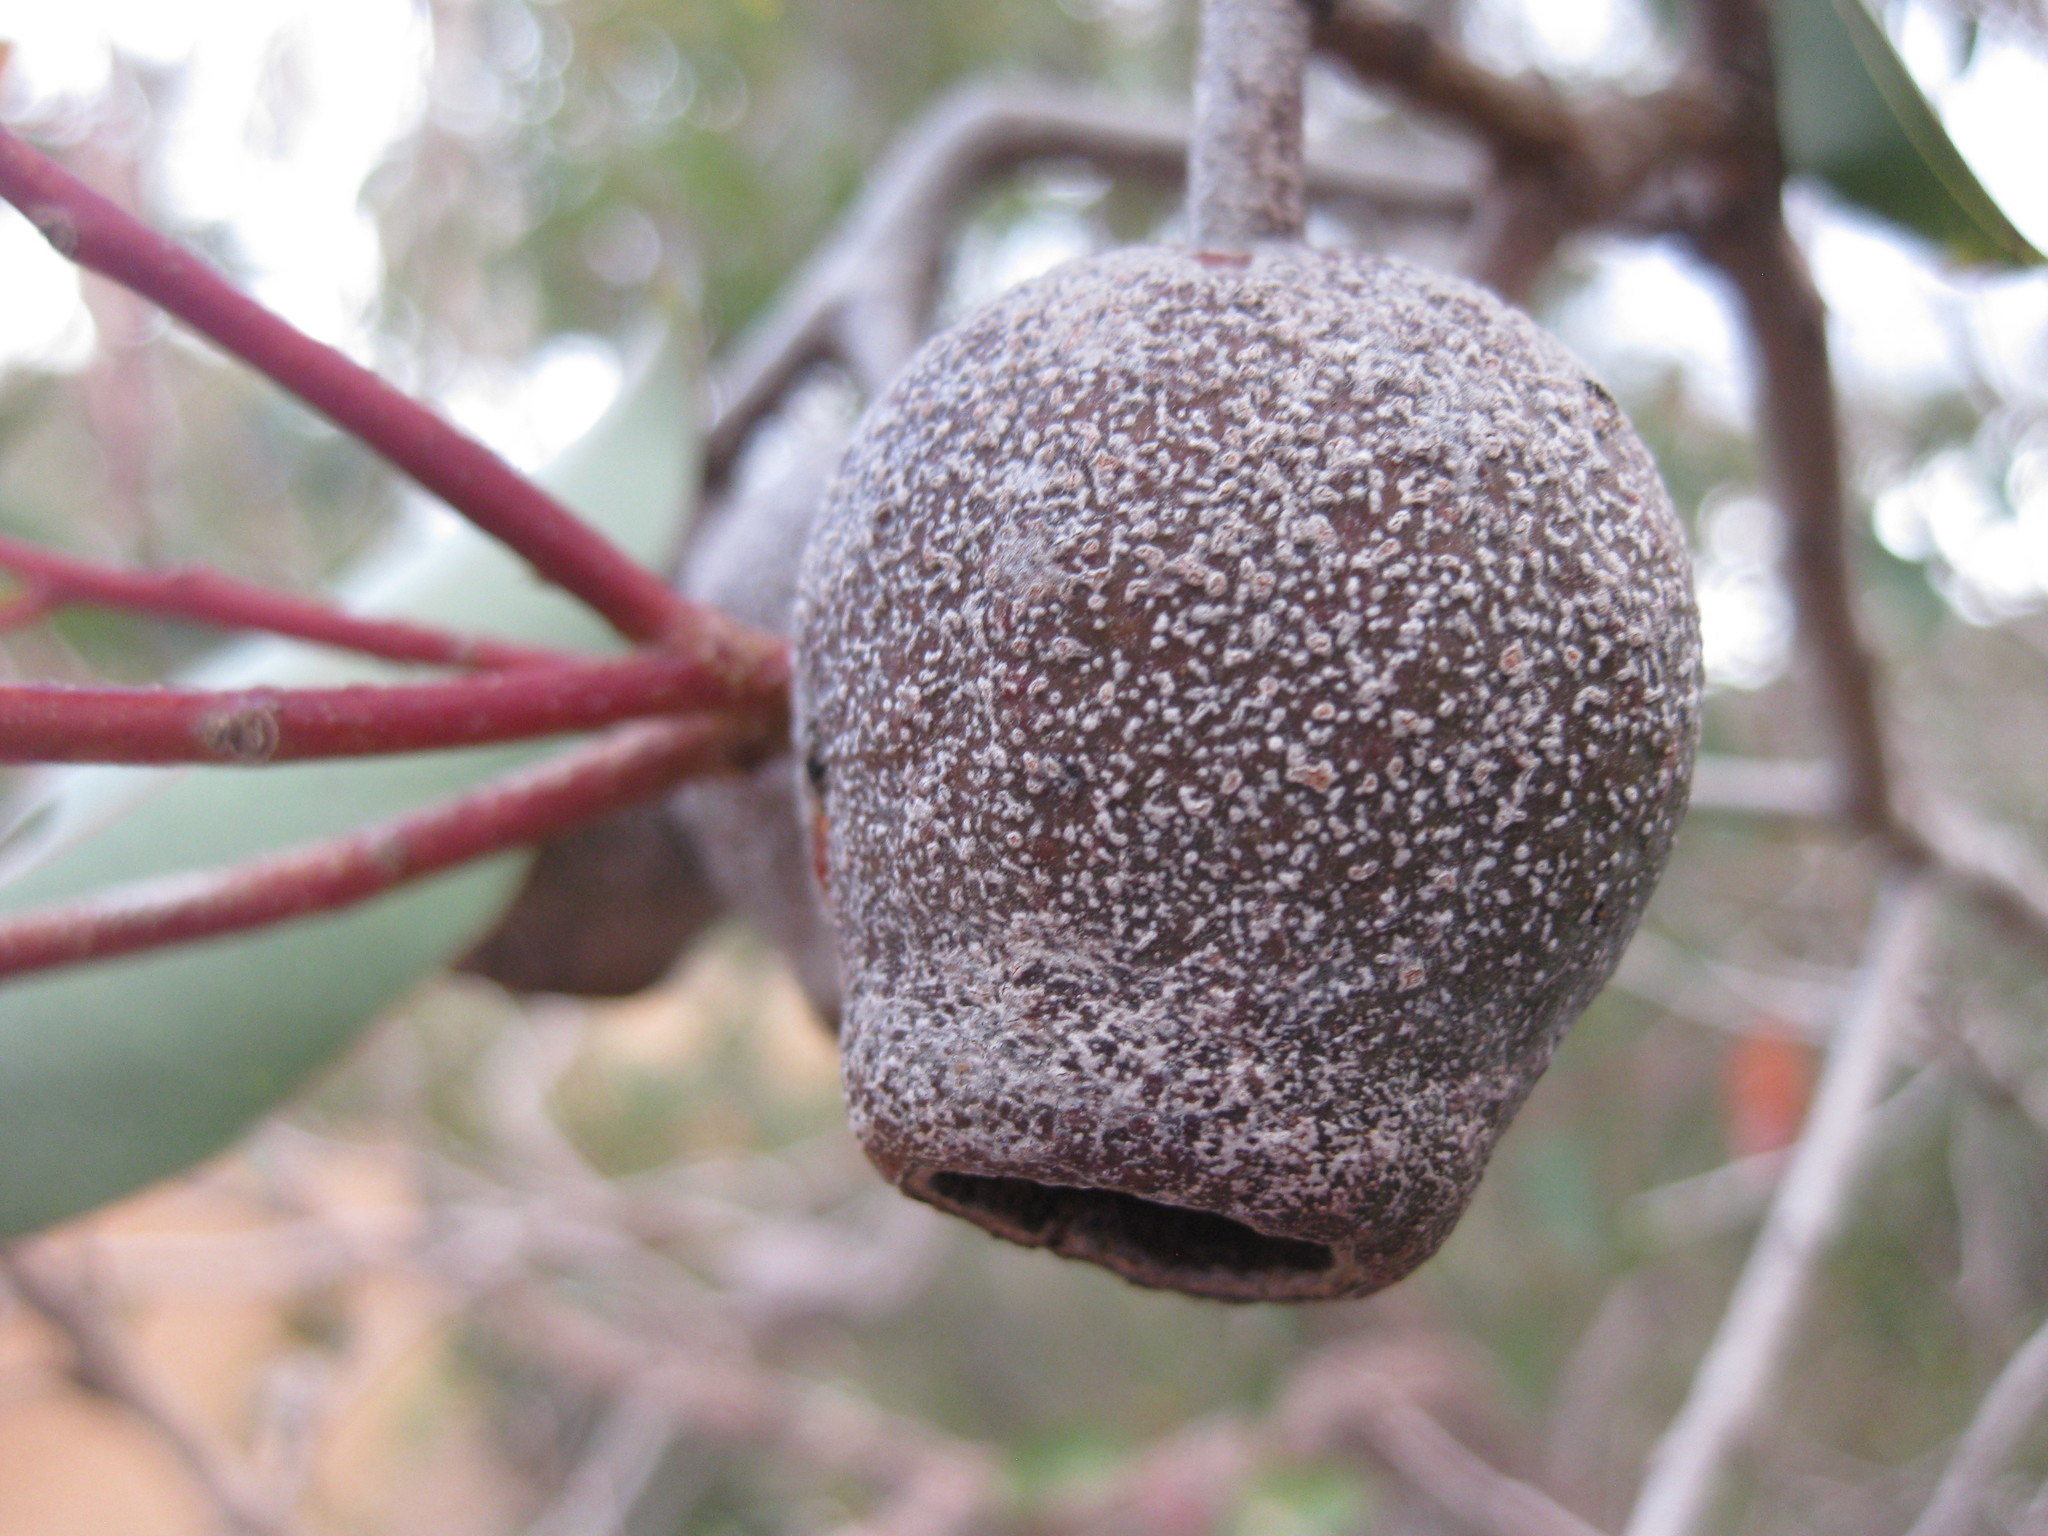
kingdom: Plantae
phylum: Tracheophyta
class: Magnoliopsida
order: Myrtales
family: Myrtaceae
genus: Corymbia
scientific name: Corymbia ficifolia
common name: Redflower gum
